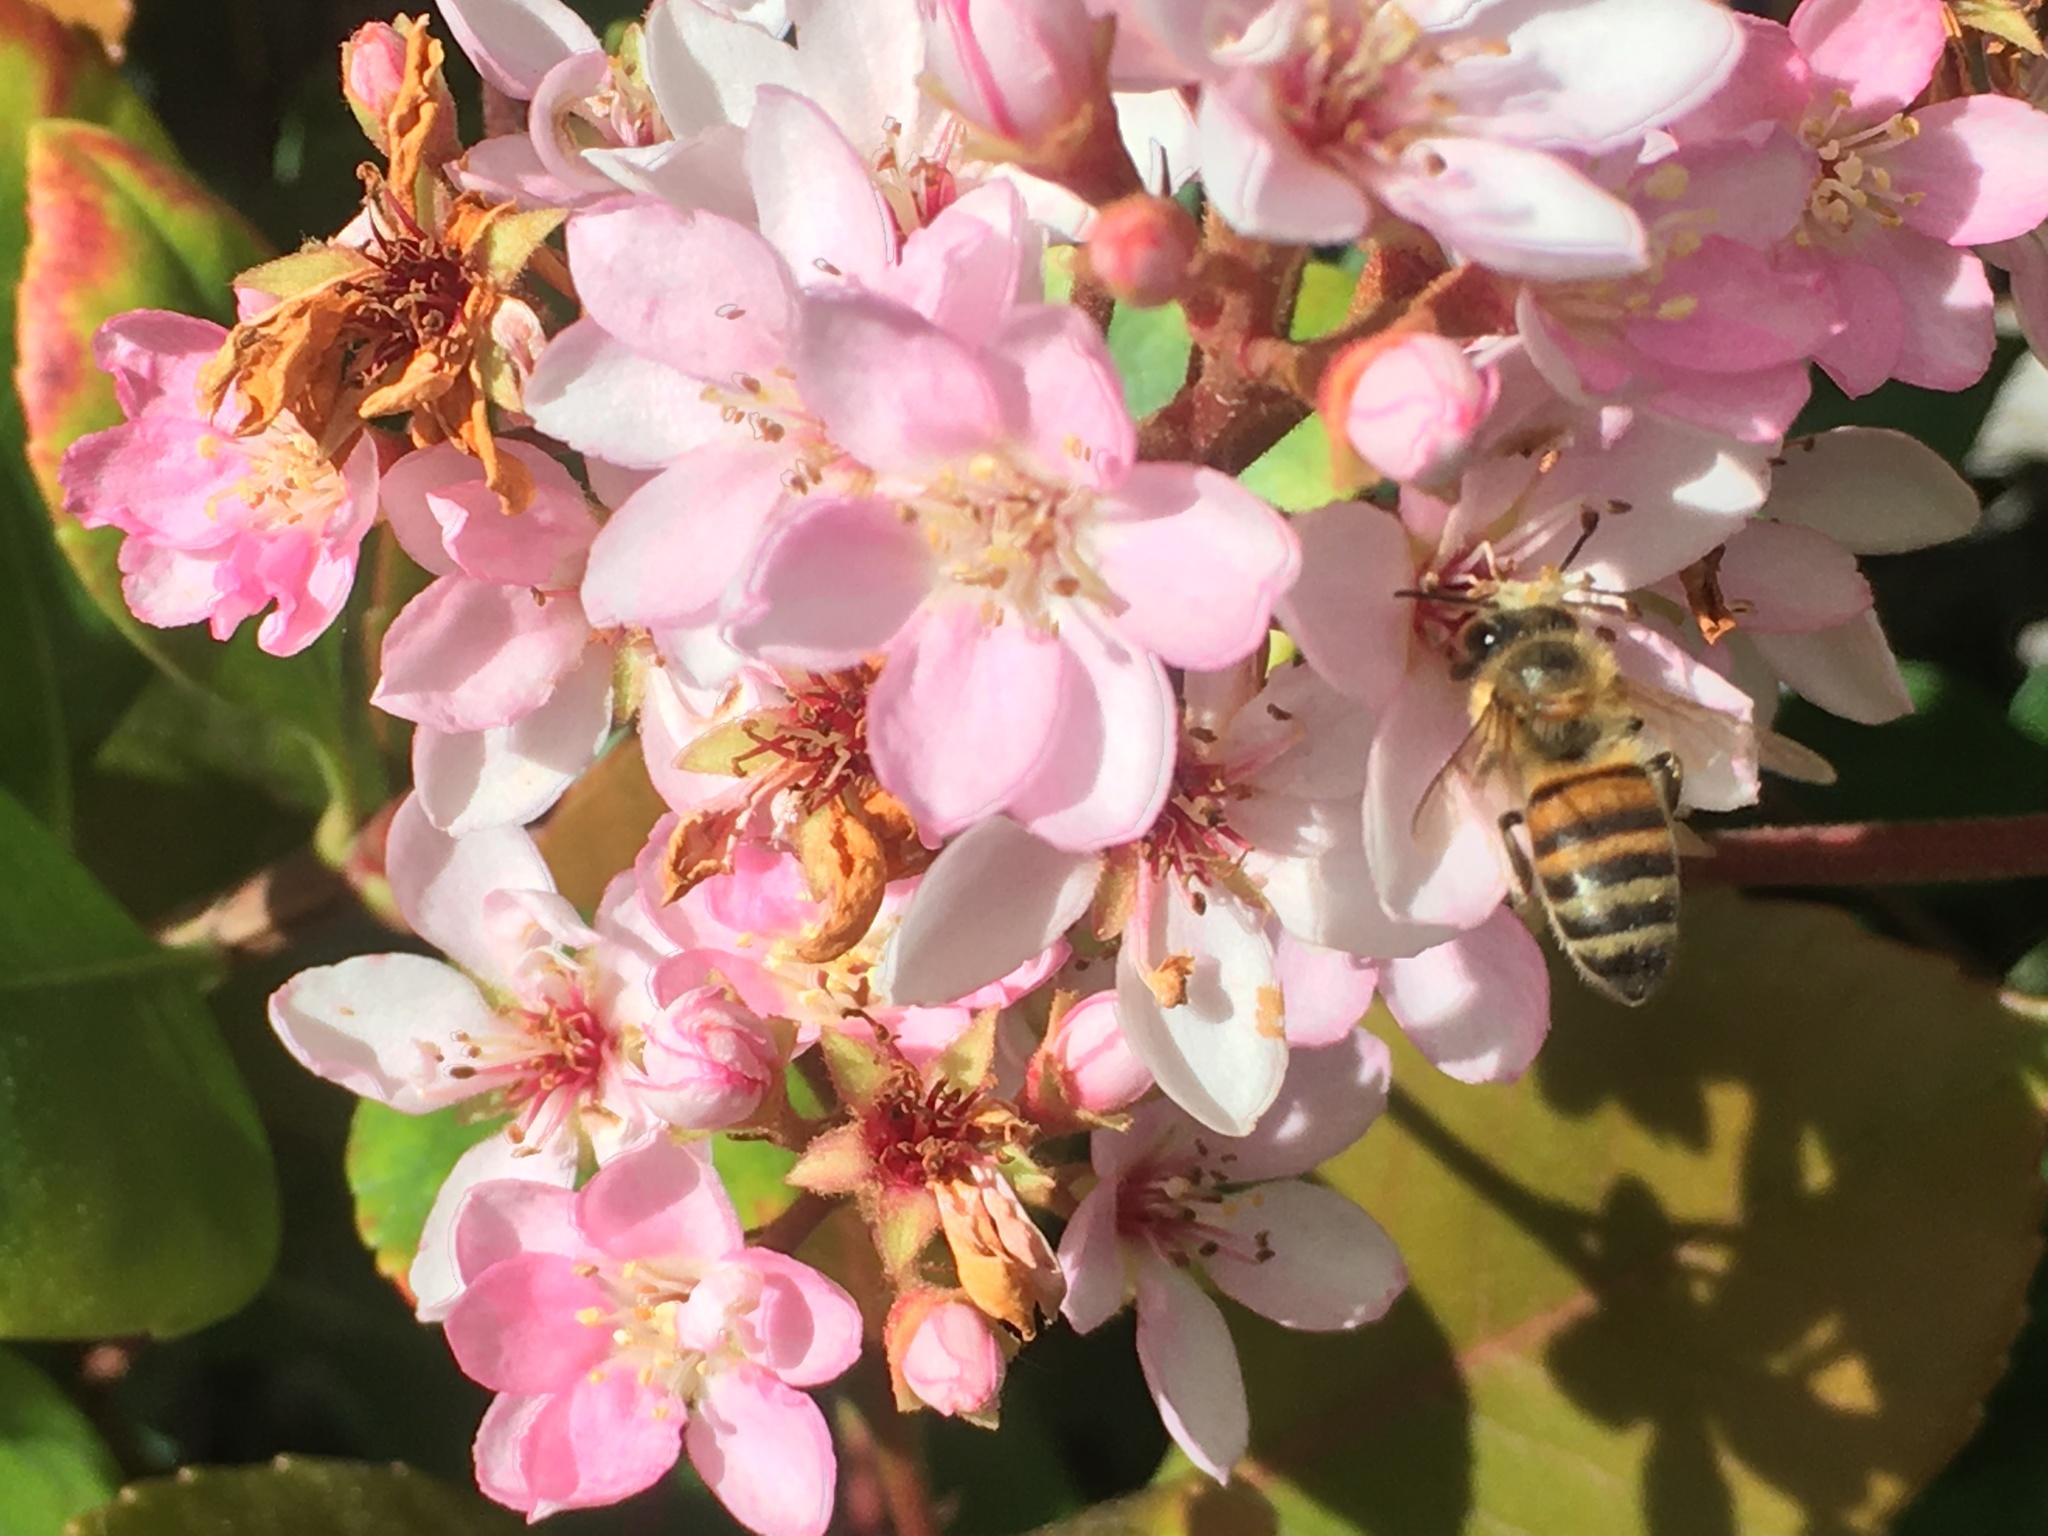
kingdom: Animalia
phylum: Arthropoda
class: Insecta
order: Hymenoptera
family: Apidae
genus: Apis
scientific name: Apis mellifera
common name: Honey bee
